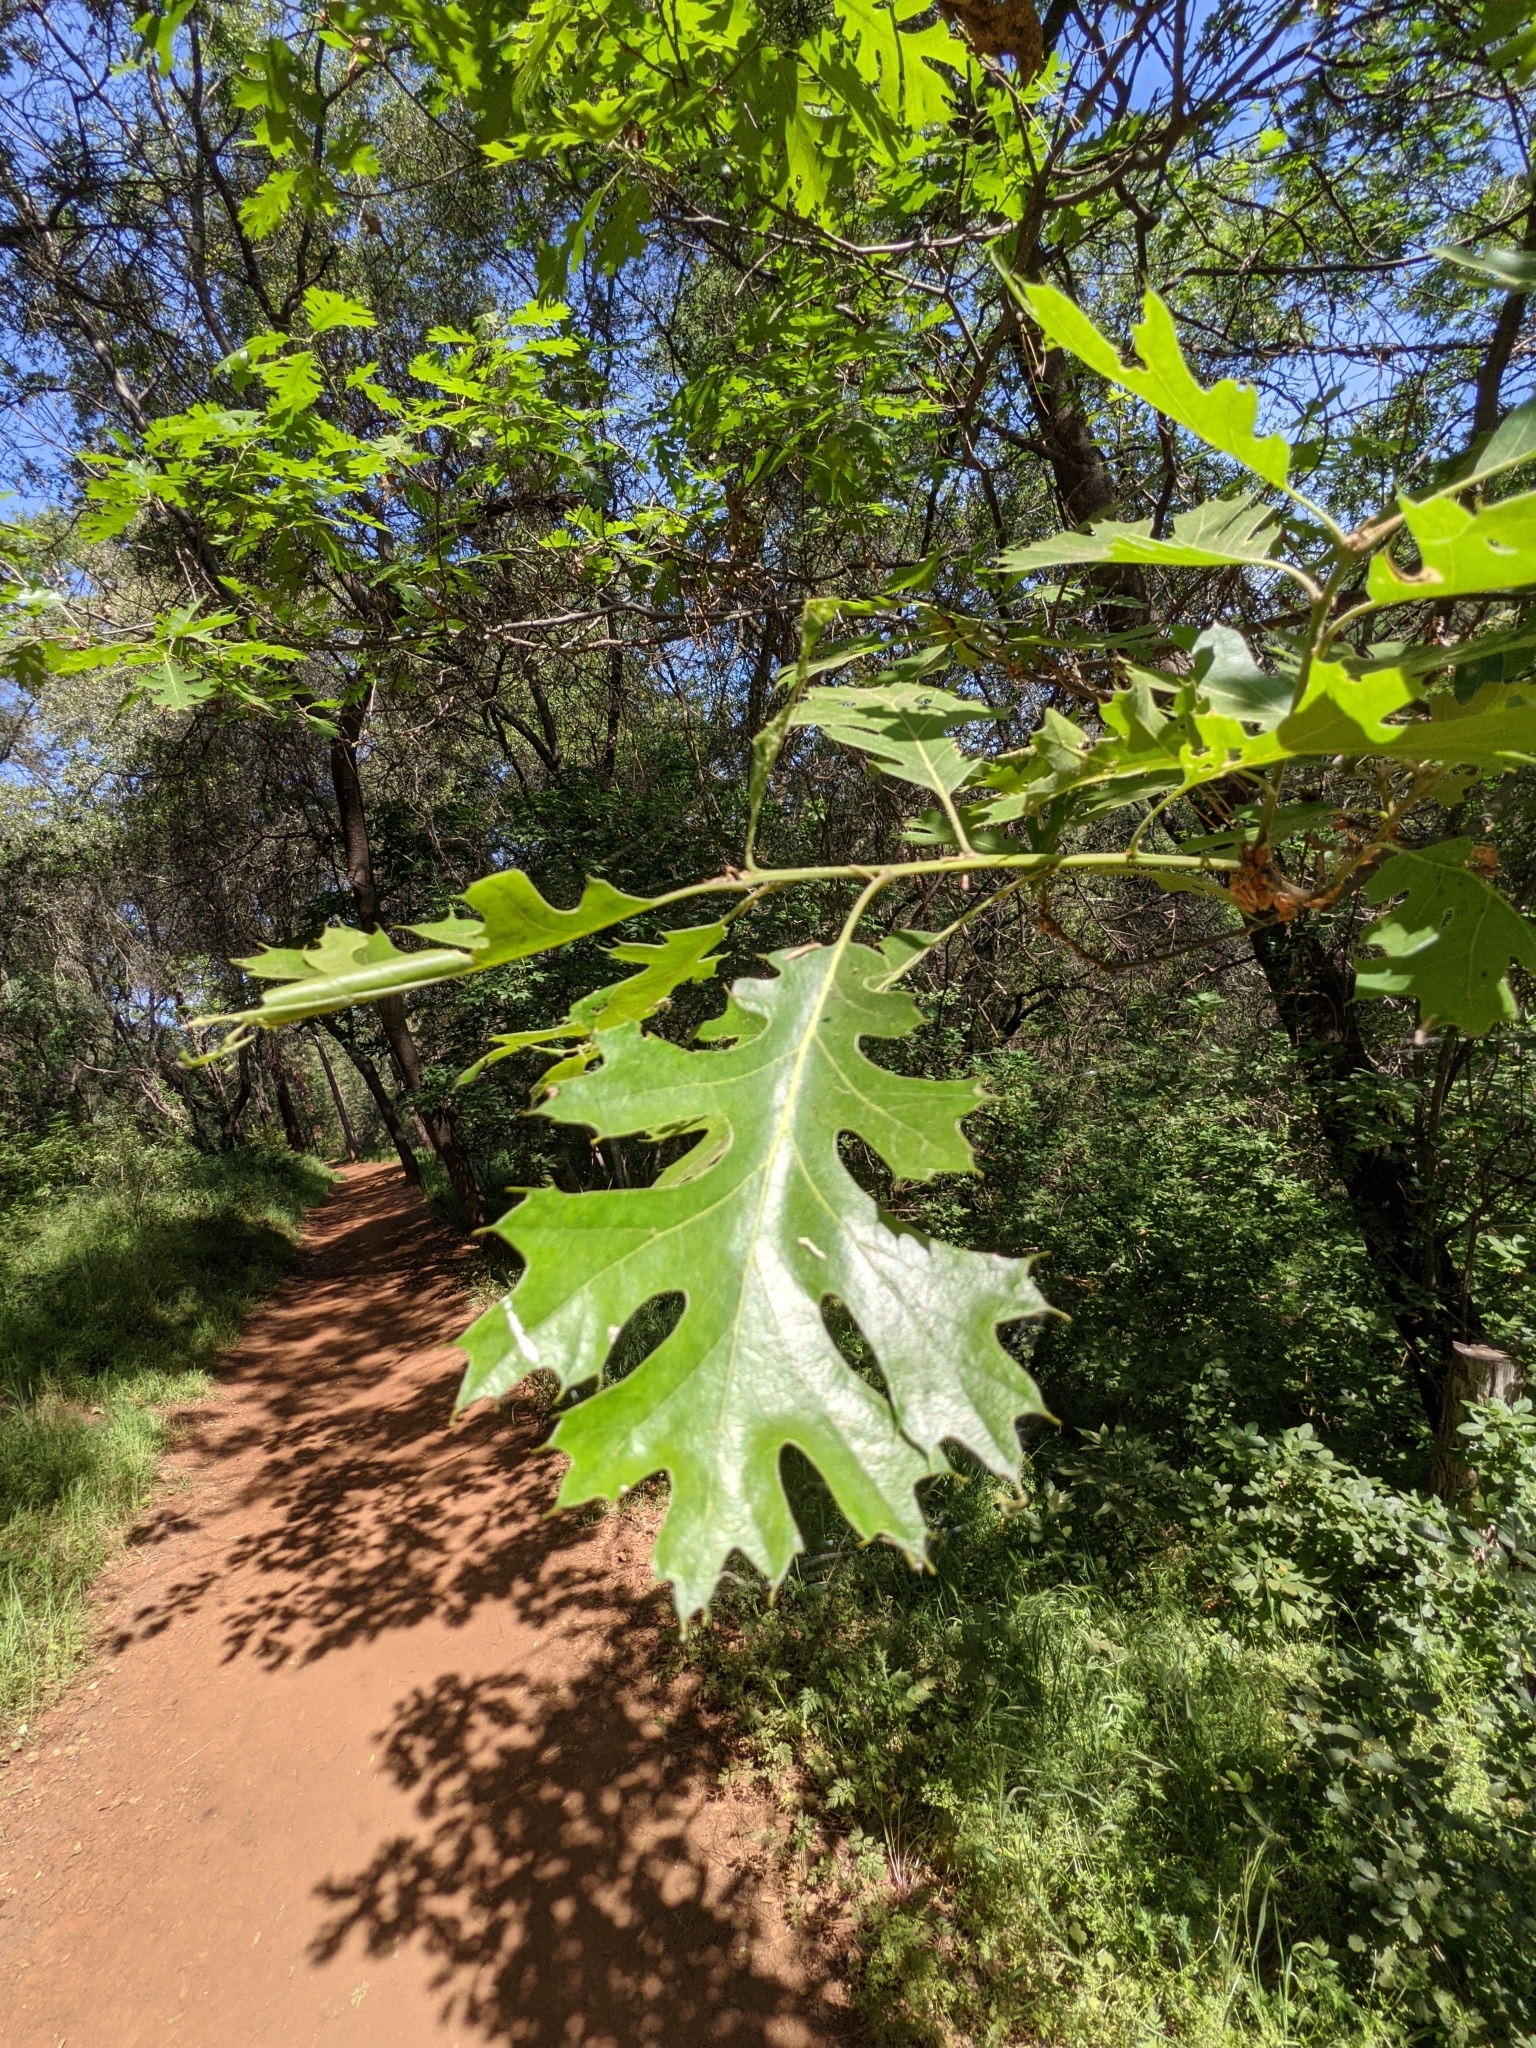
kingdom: Plantae
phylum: Tracheophyta
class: Magnoliopsida
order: Fagales
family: Fagaceae
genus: Quercus
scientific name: Quercus kelloggii
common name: California black oak
